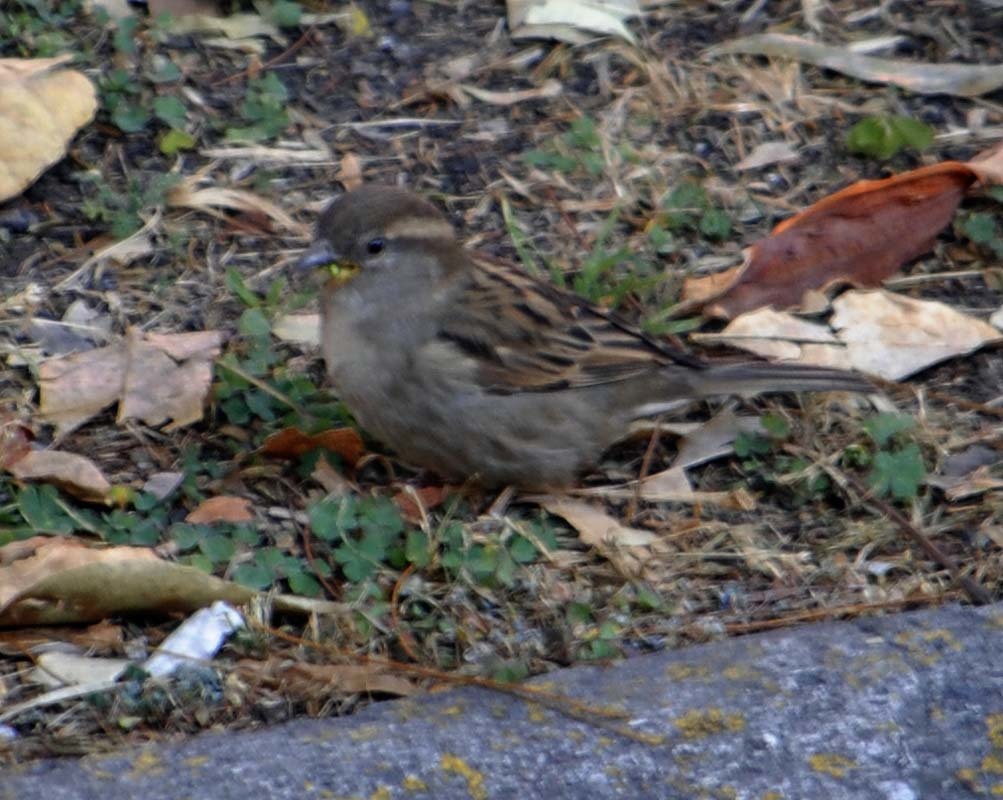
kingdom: Animalia
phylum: Chordata
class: Aves
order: Passeriformes
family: Passeridae
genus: Passer
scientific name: Passer domesticus
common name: House sparrow
